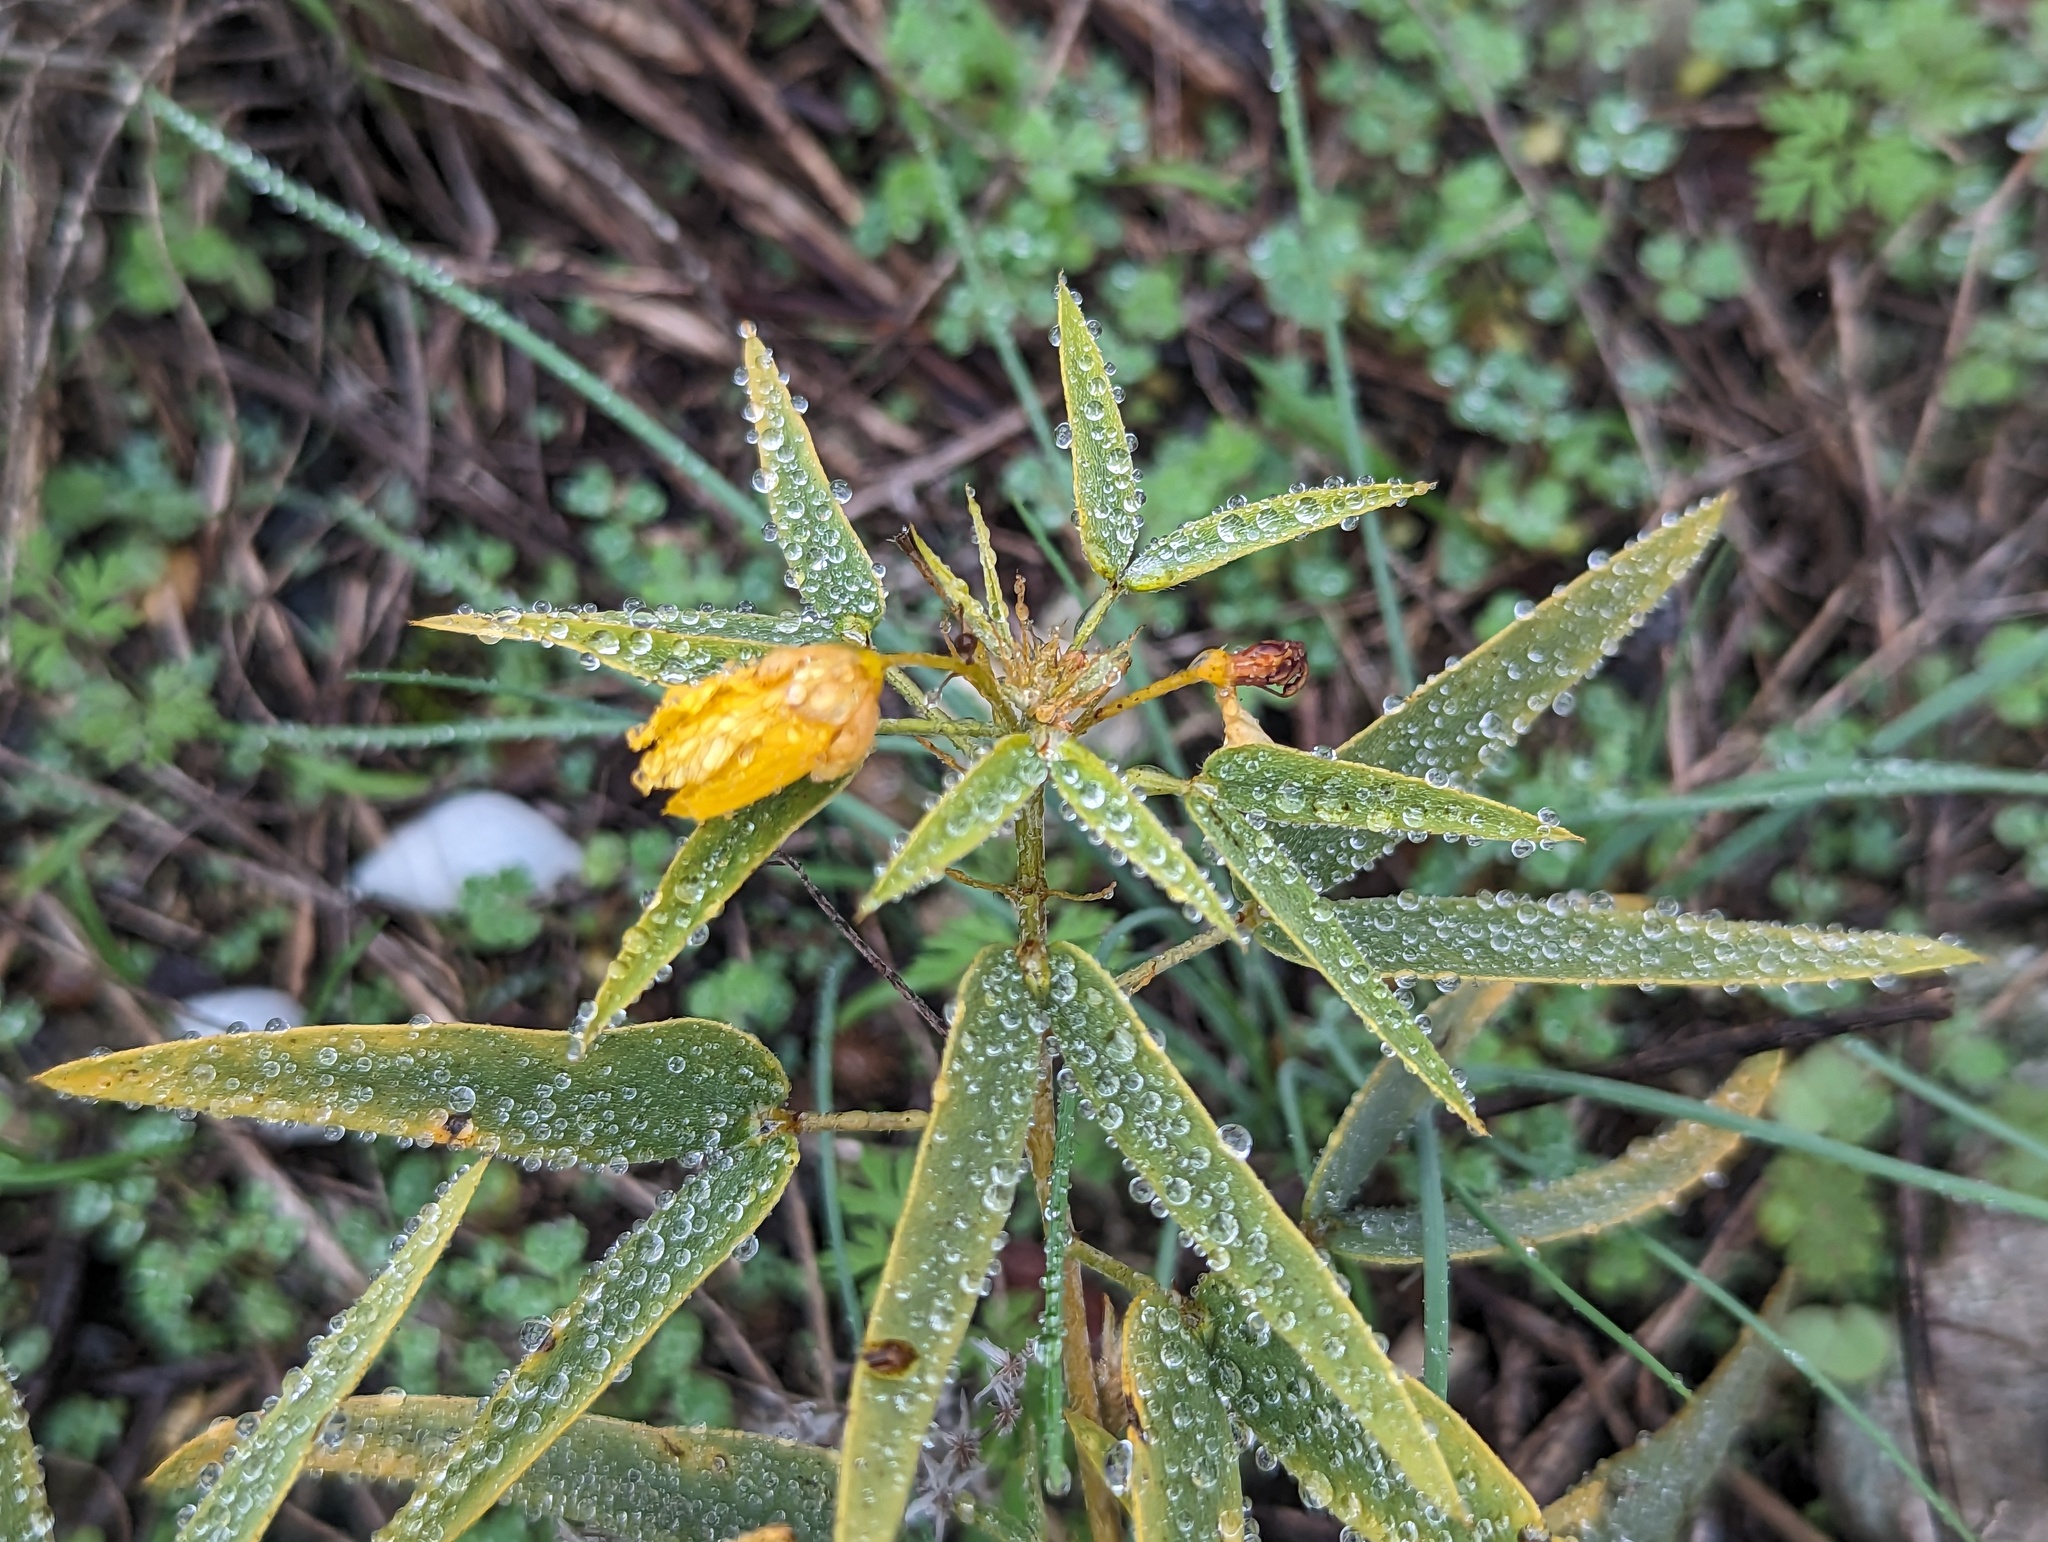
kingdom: Plantae
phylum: Tracheophyta
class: Magnoliopsida
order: Fabales
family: Fabaceae
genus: Senna
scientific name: Senna roemeriana
